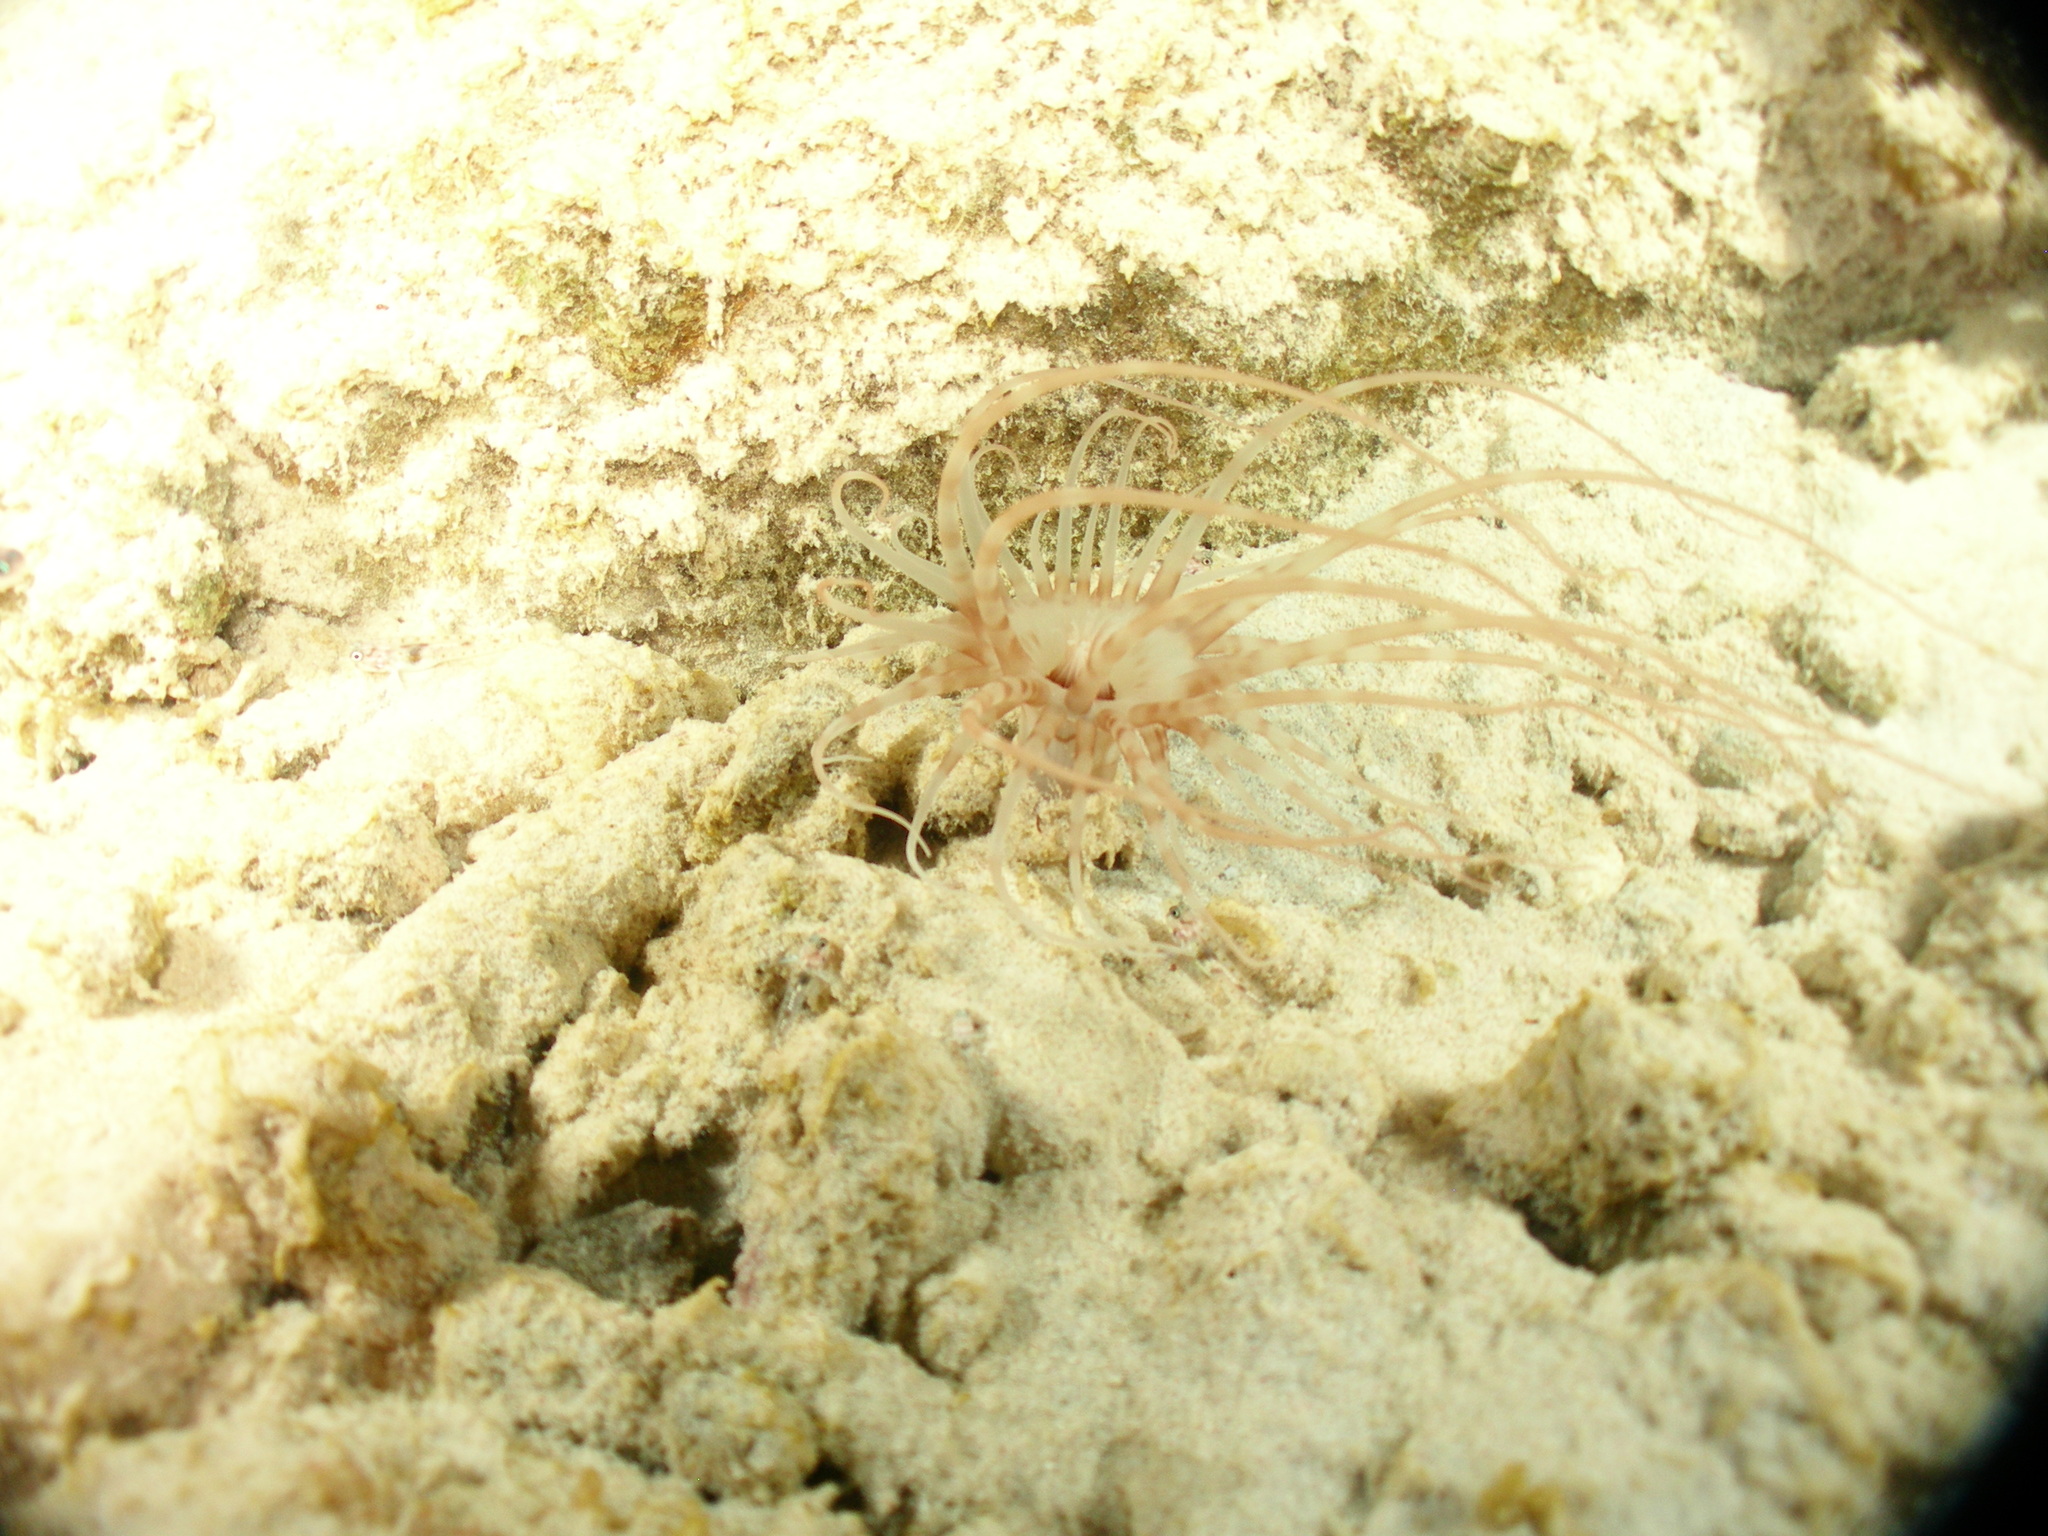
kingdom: Animalia
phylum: Cnidaria
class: Anthozoa
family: Arachnactidae
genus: Isarachnanthus
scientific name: Isarachnanthus nocturnus
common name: Banded tube-dwelling anemone
